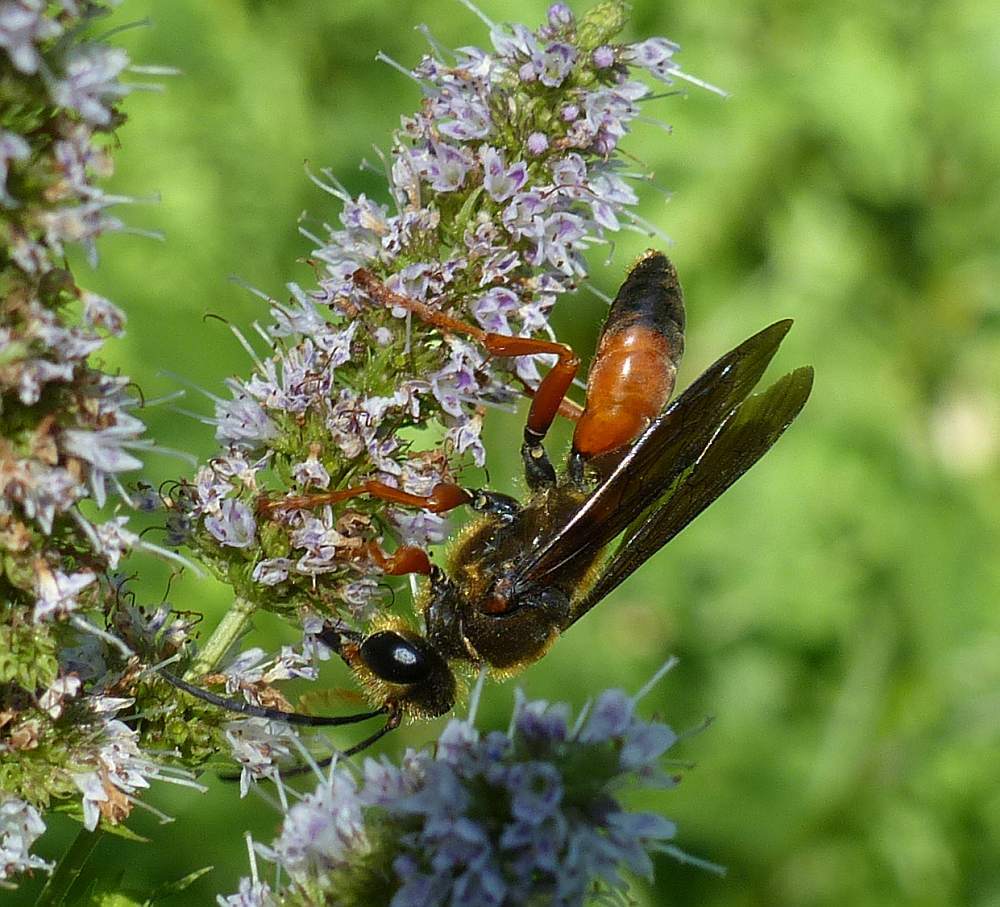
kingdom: Animalia
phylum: Arthropoda
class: Insecta
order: Hymenoptera
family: Sphecidae
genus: Sphex
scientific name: Sphex ichneumoneus
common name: Great golden digger wasp
